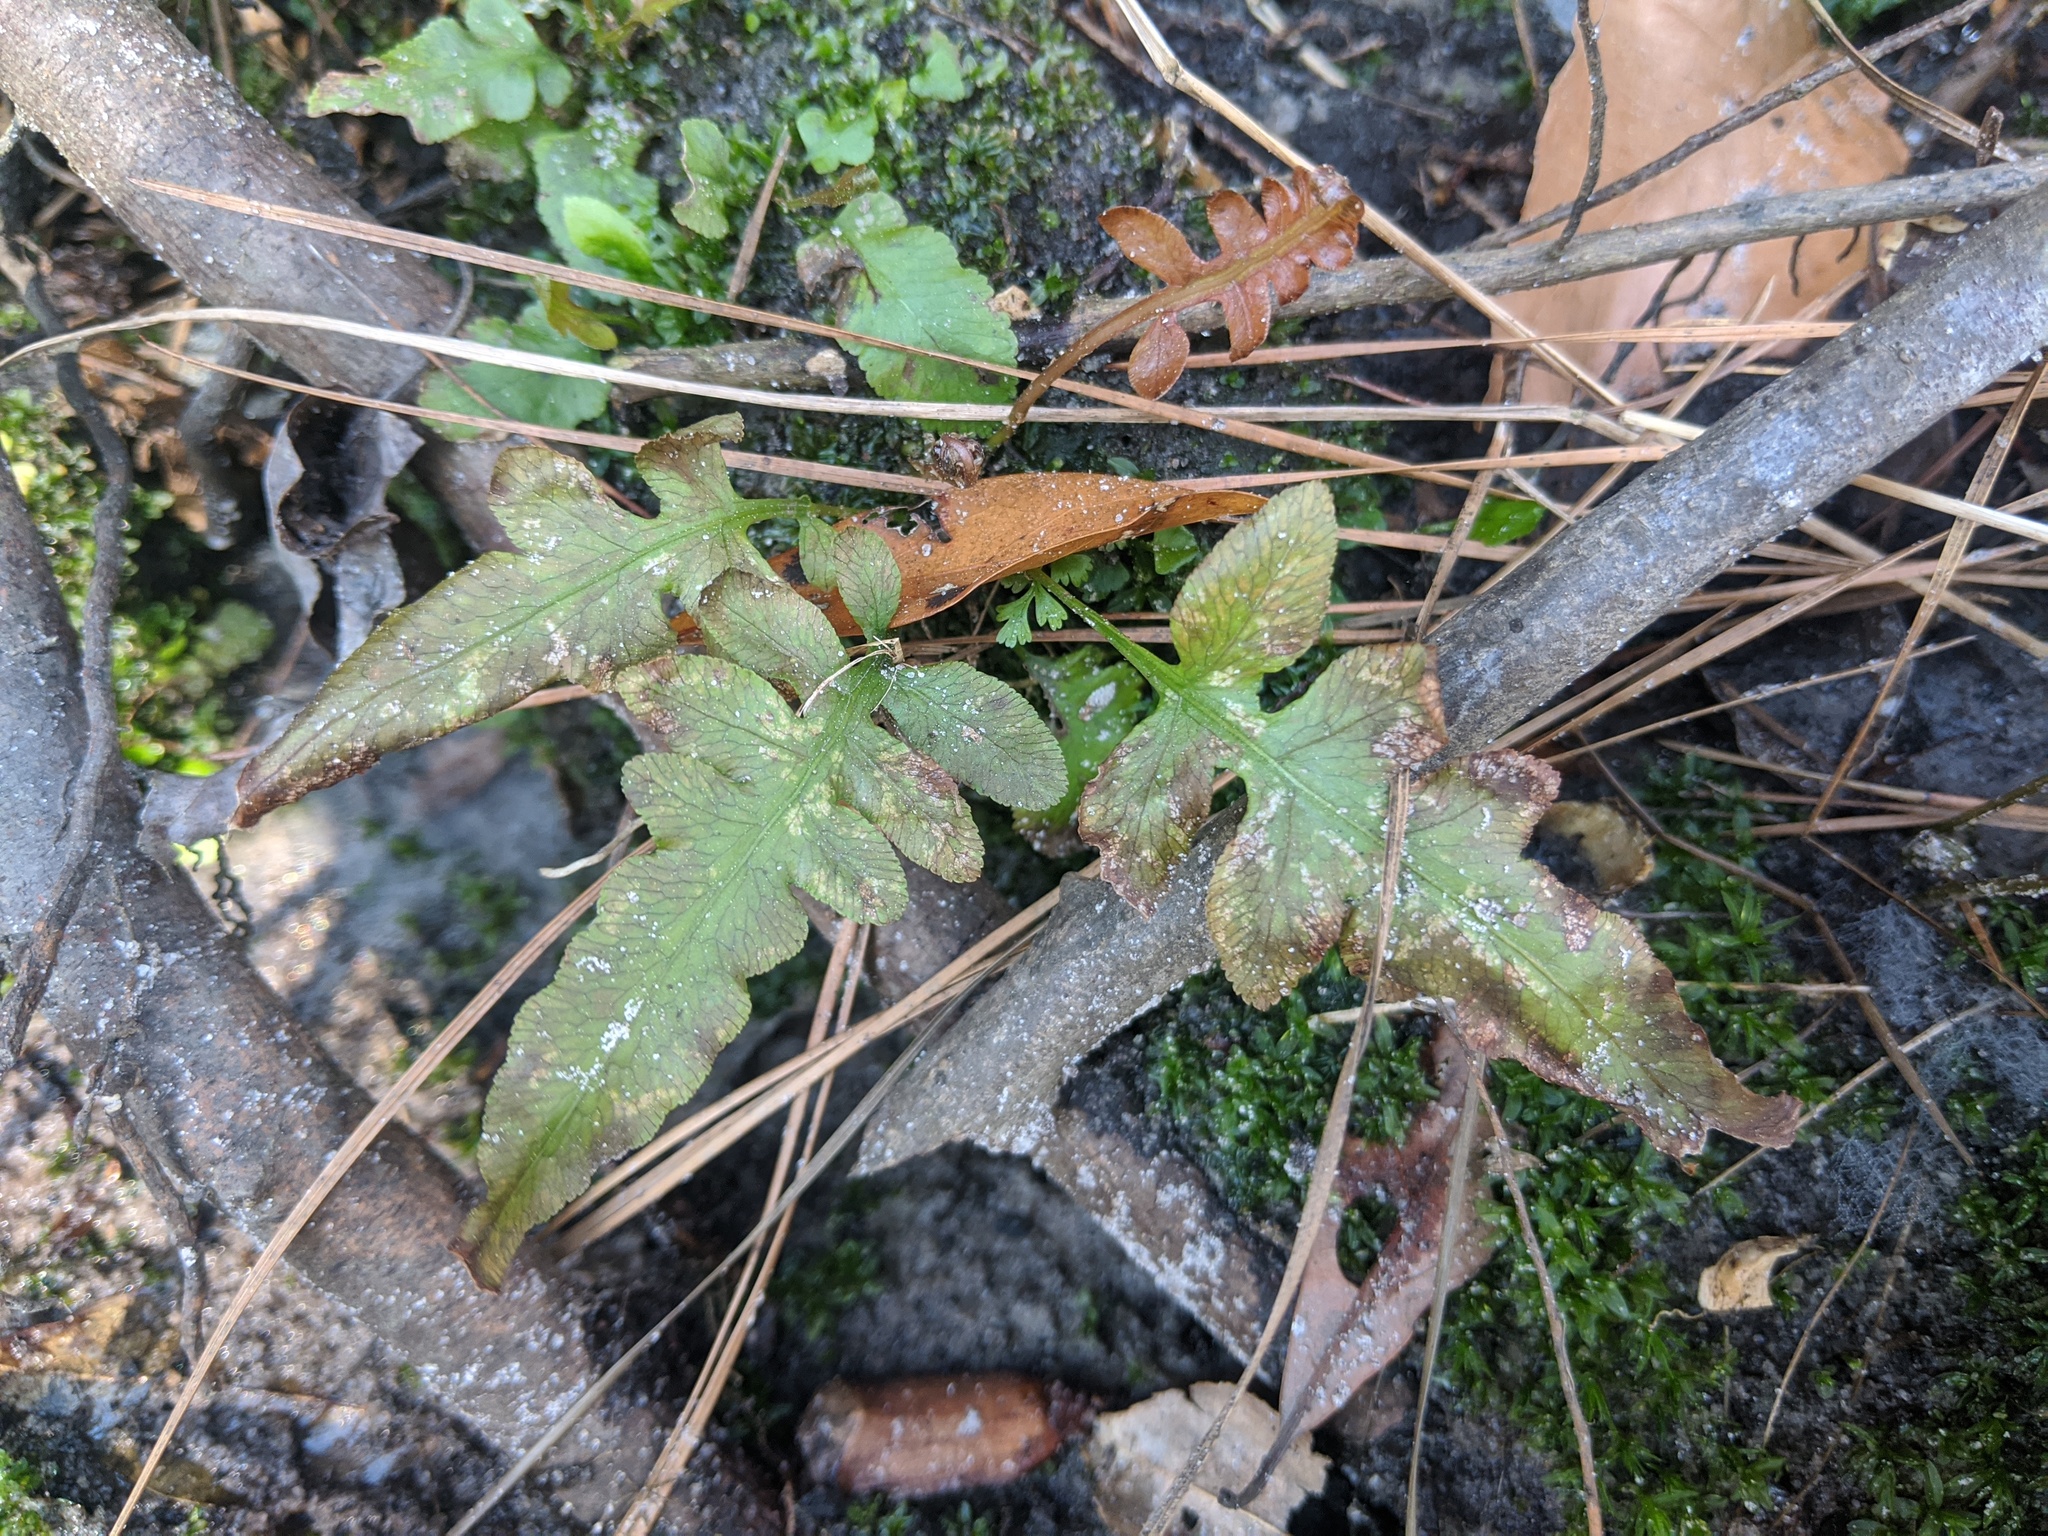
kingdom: Plantae
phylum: Tracheophyta
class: Polypodiopsida
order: Polypodiales
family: Blechnaceae
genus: Lorinseria
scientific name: Lorinseria areolata
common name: Dwarf chain fern
